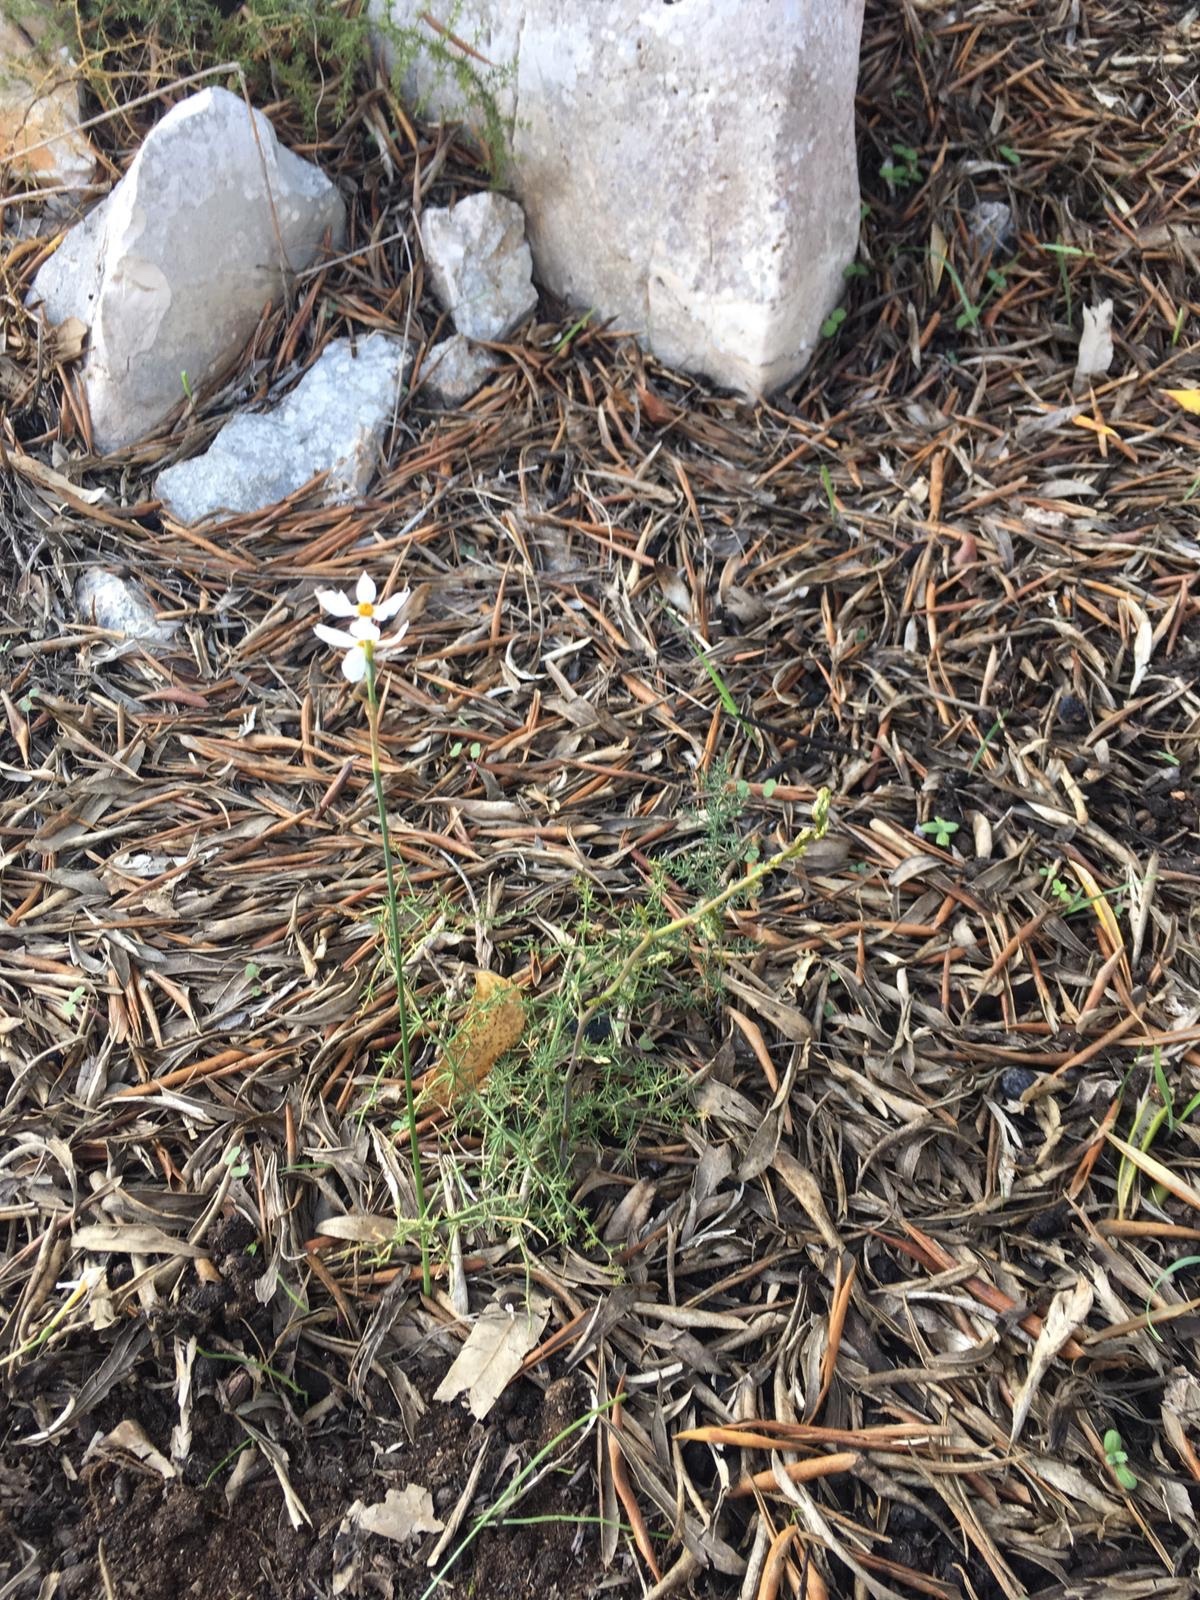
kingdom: Plantae
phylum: Tracheophyta
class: Liliopsida
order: Asparagales
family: Amaryllidaceae
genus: Narcissus
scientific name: Narcissus deficiens
